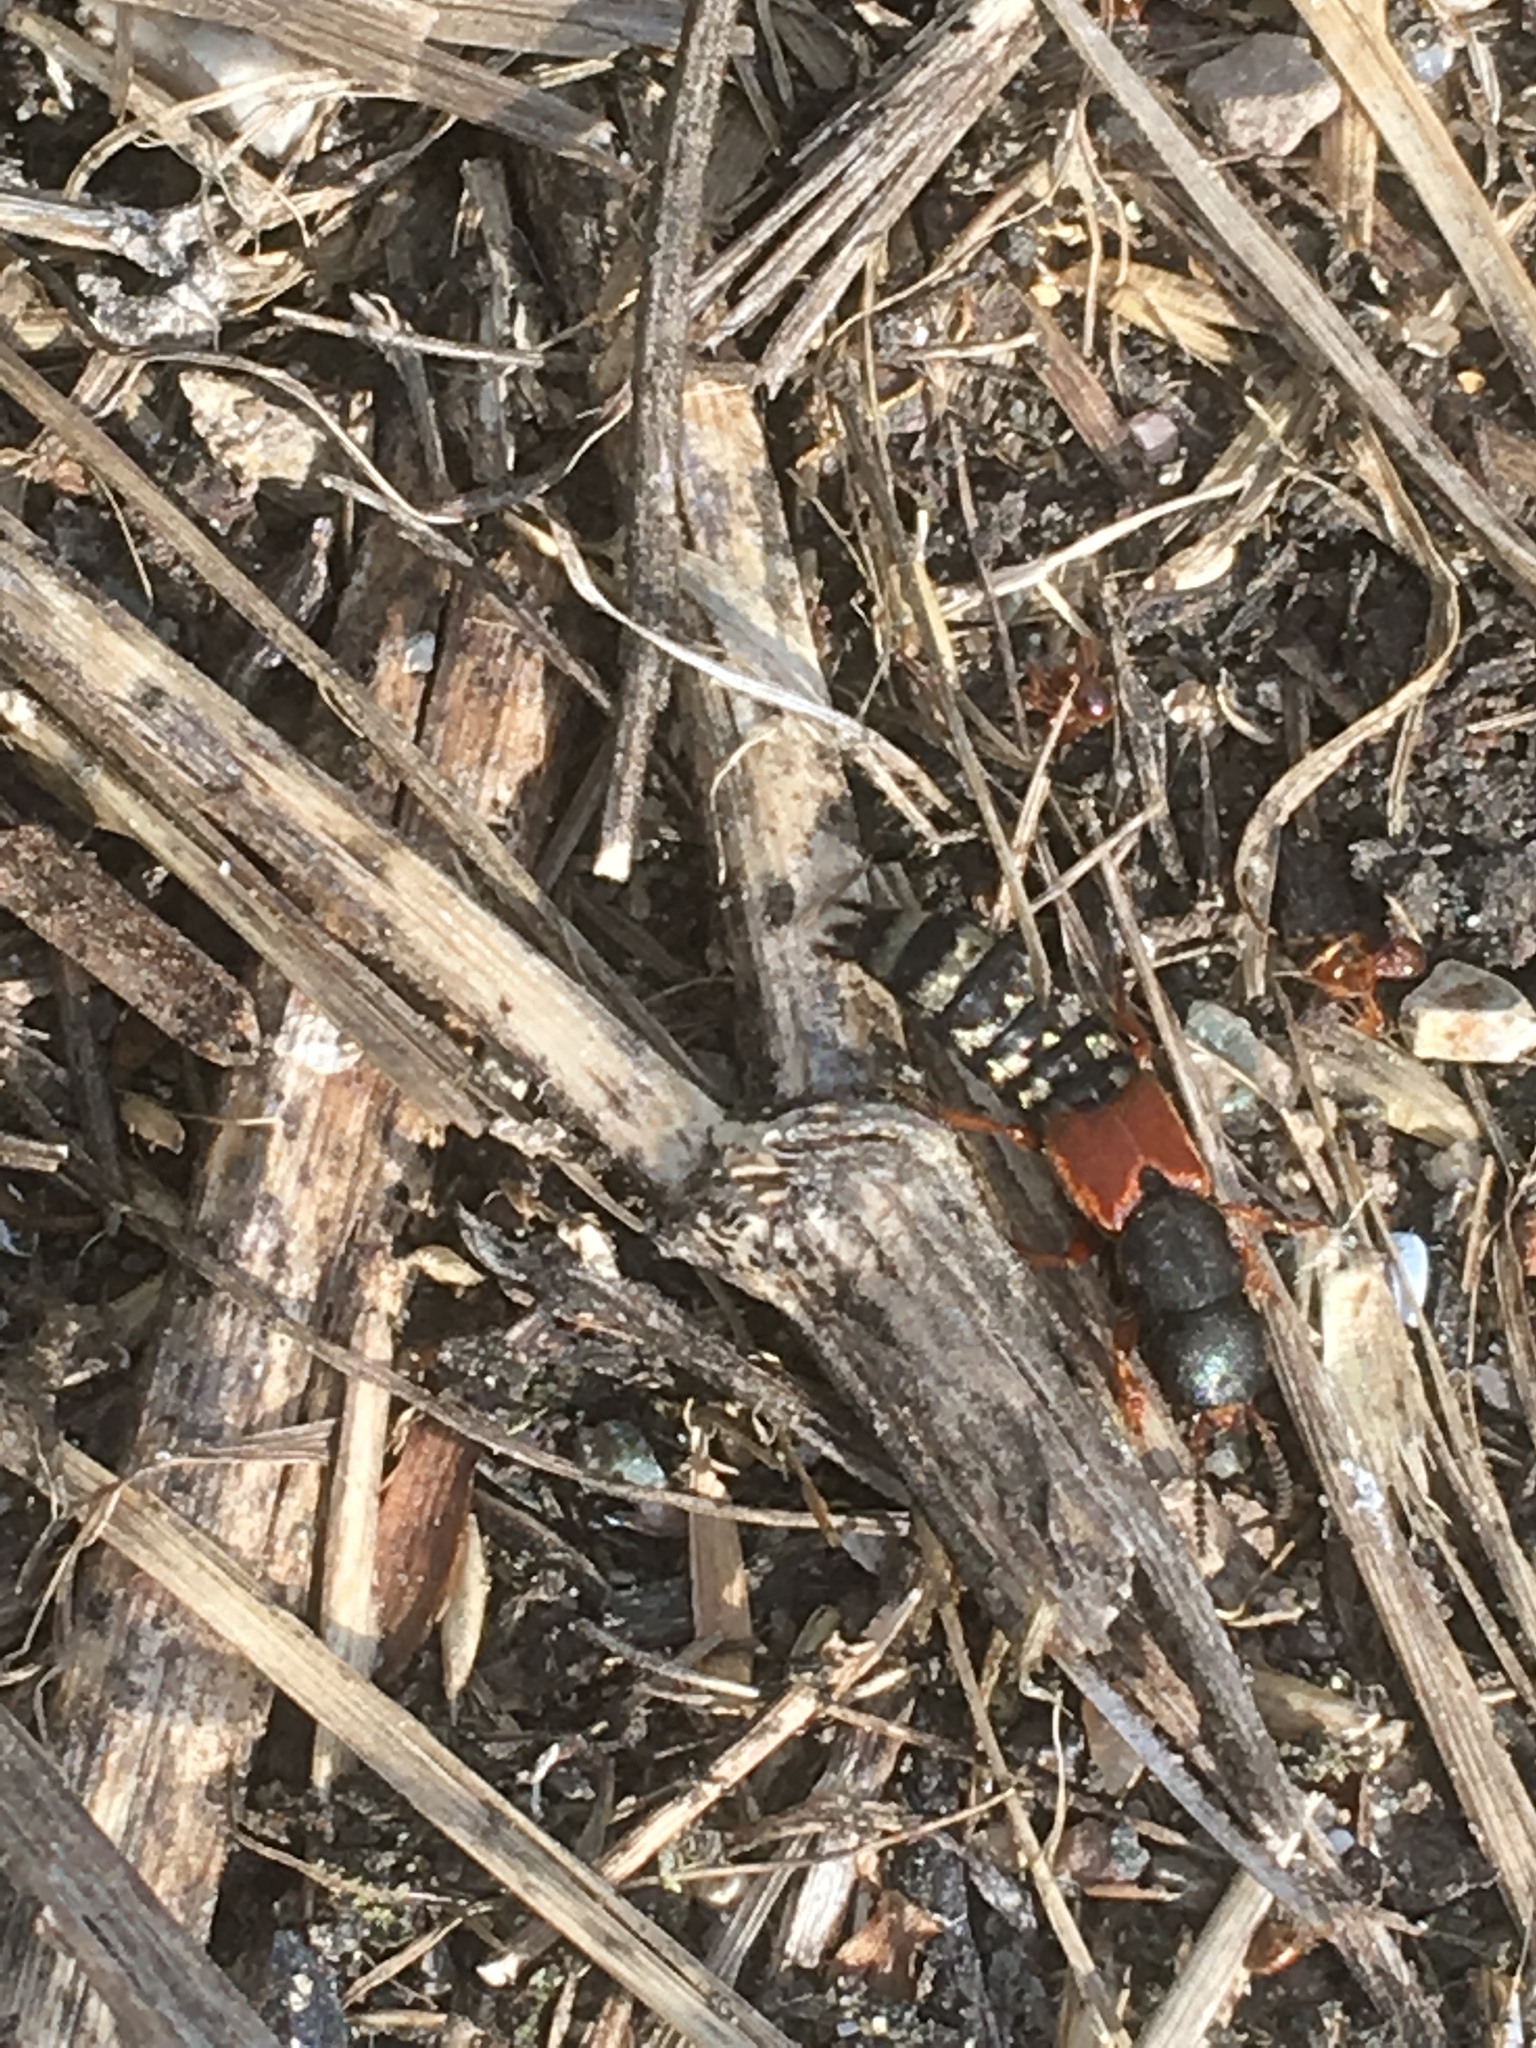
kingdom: Animalia
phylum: Arthropoda
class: Insecta
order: Coleoptera
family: Staphylinidae
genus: Platydracus
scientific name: Platydracus stercorarius
